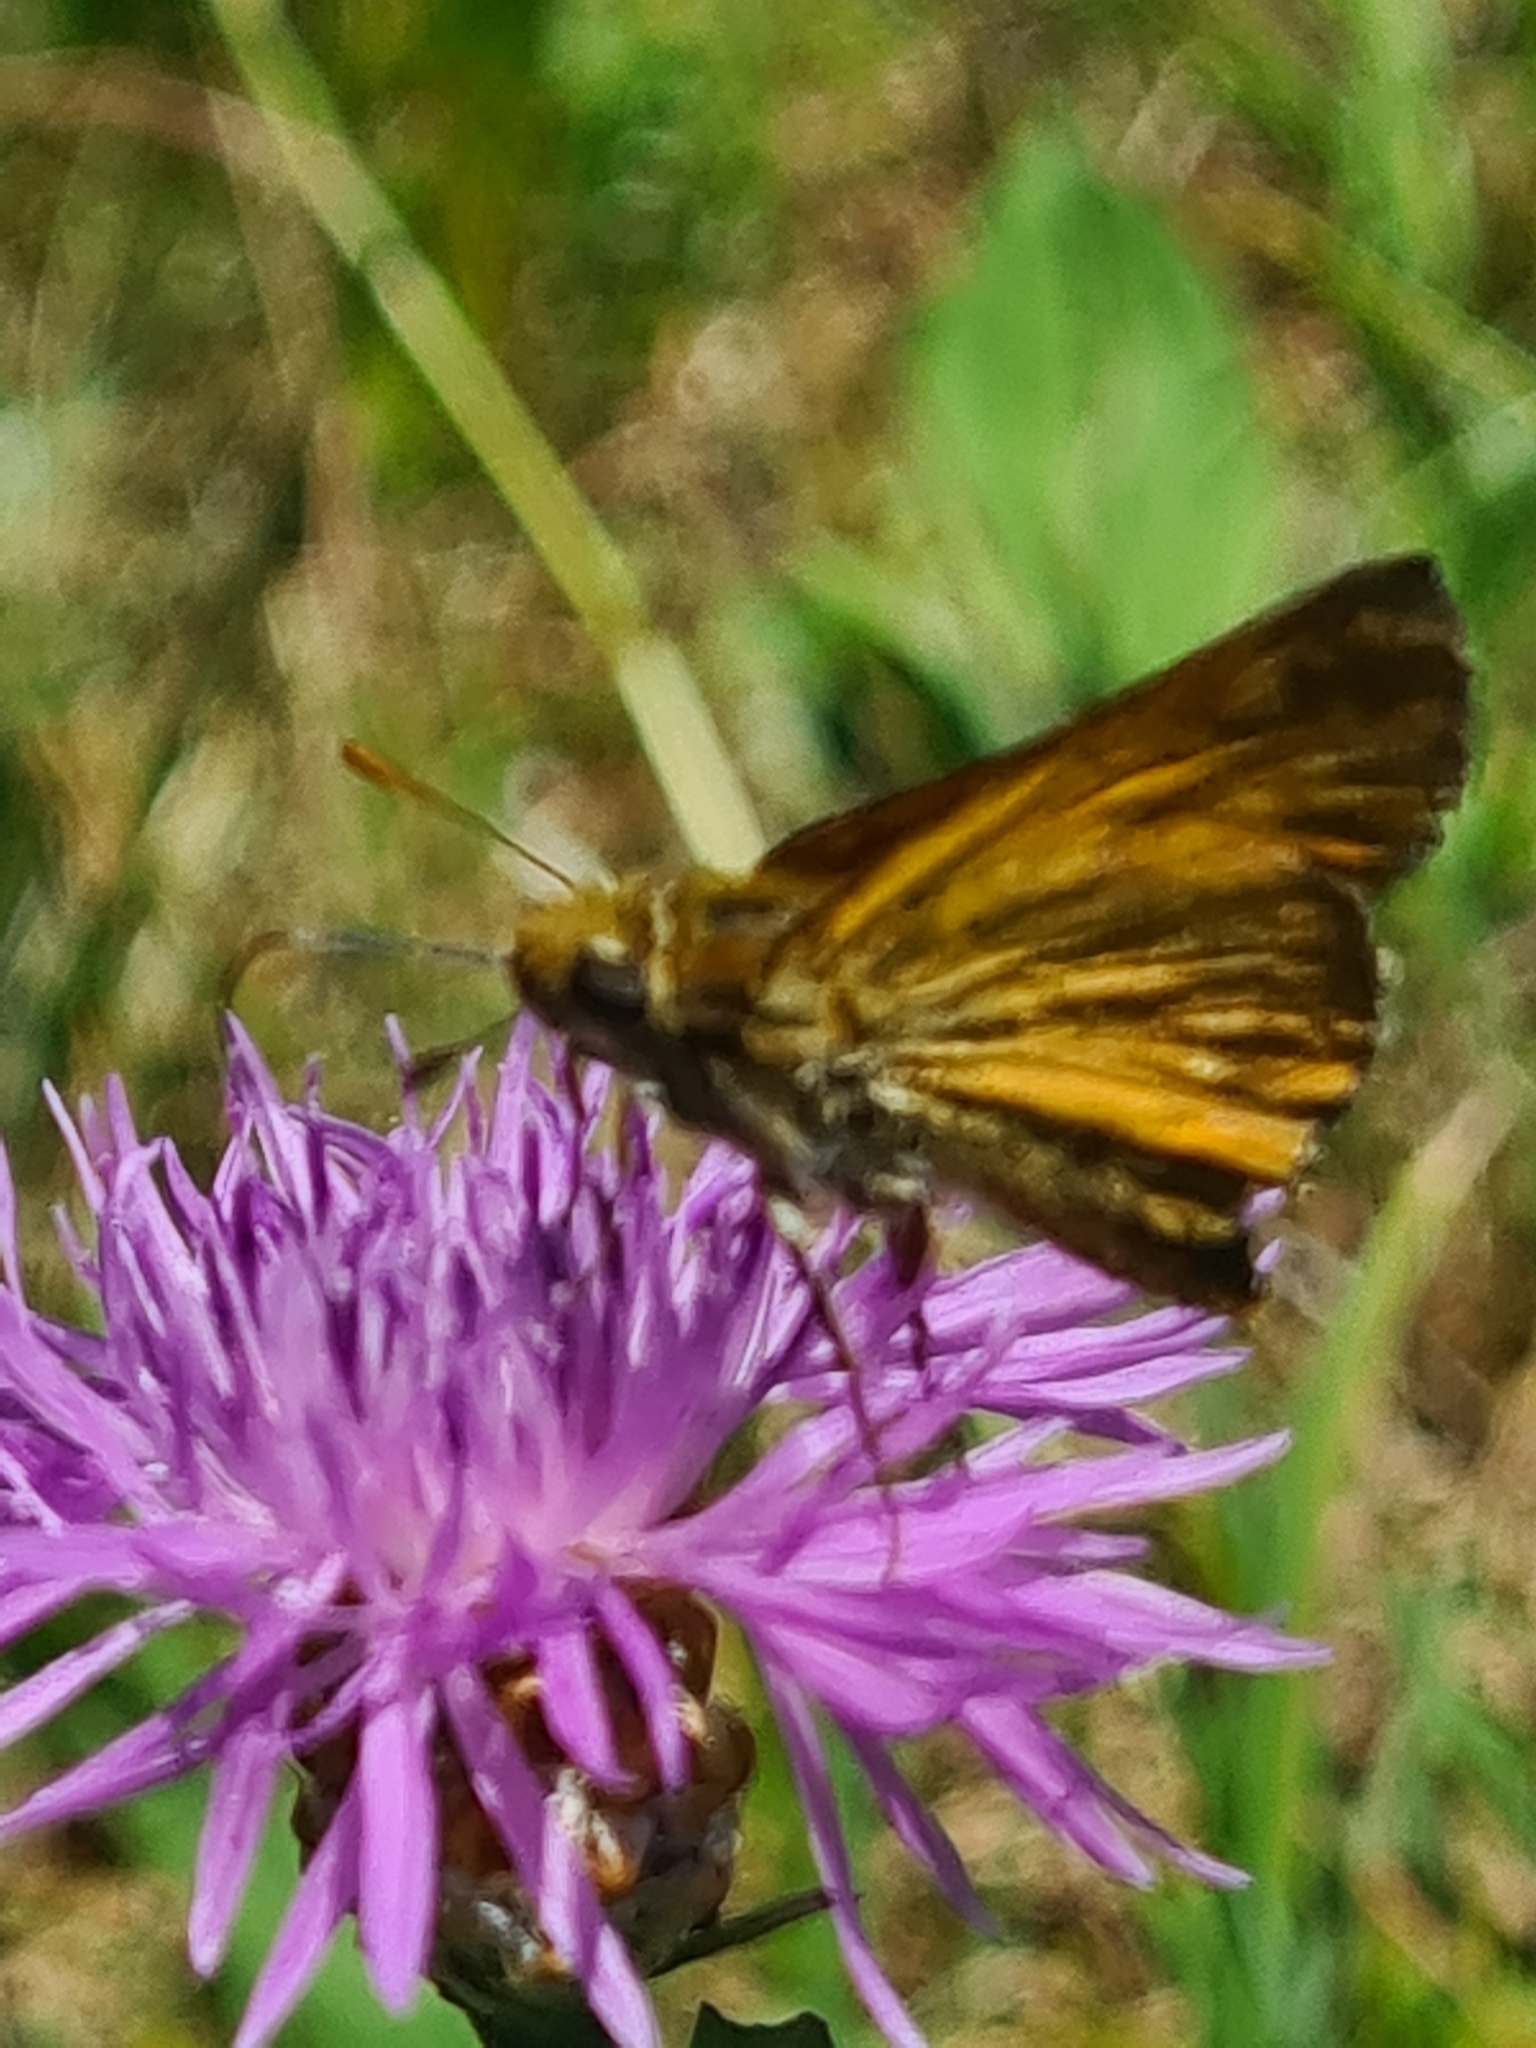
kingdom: Animalia
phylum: Arthropoda
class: Insecta
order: Lepidoptera
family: Hesperiidae
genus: Ochlodes
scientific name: Ochlodes venata
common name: Large skipper
